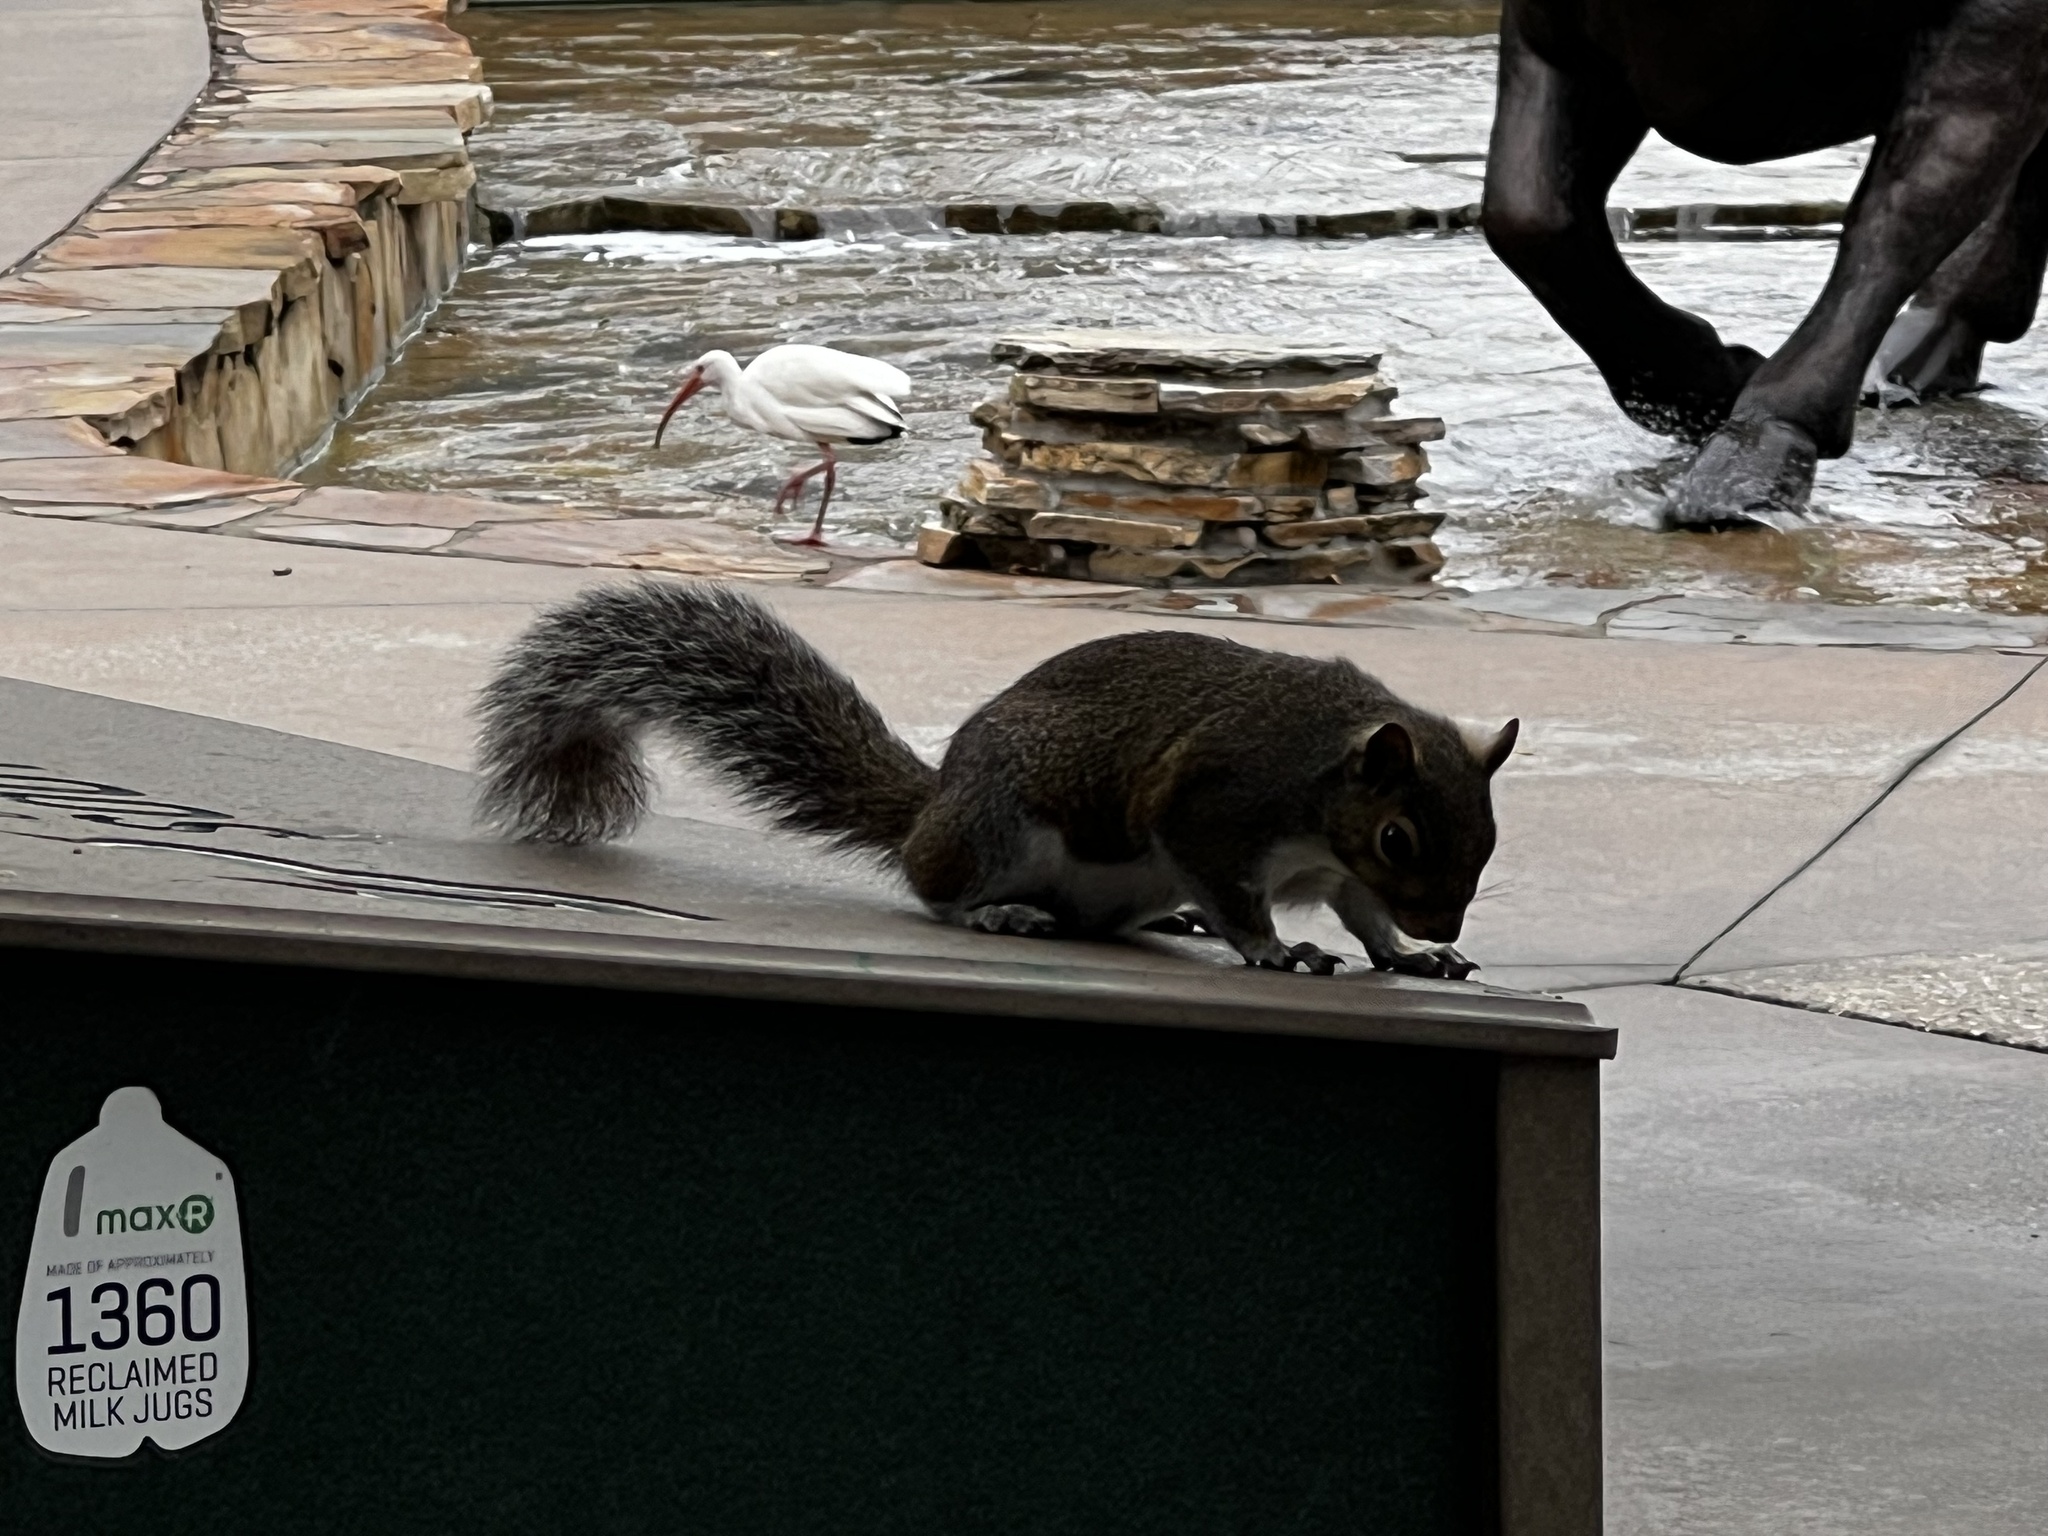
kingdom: Animalia
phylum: Chordata
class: Mammalia
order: Rodentia
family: Sciuridae
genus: Sciurus
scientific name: Sciurus carolinensis
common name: Eastern gray squirrel
